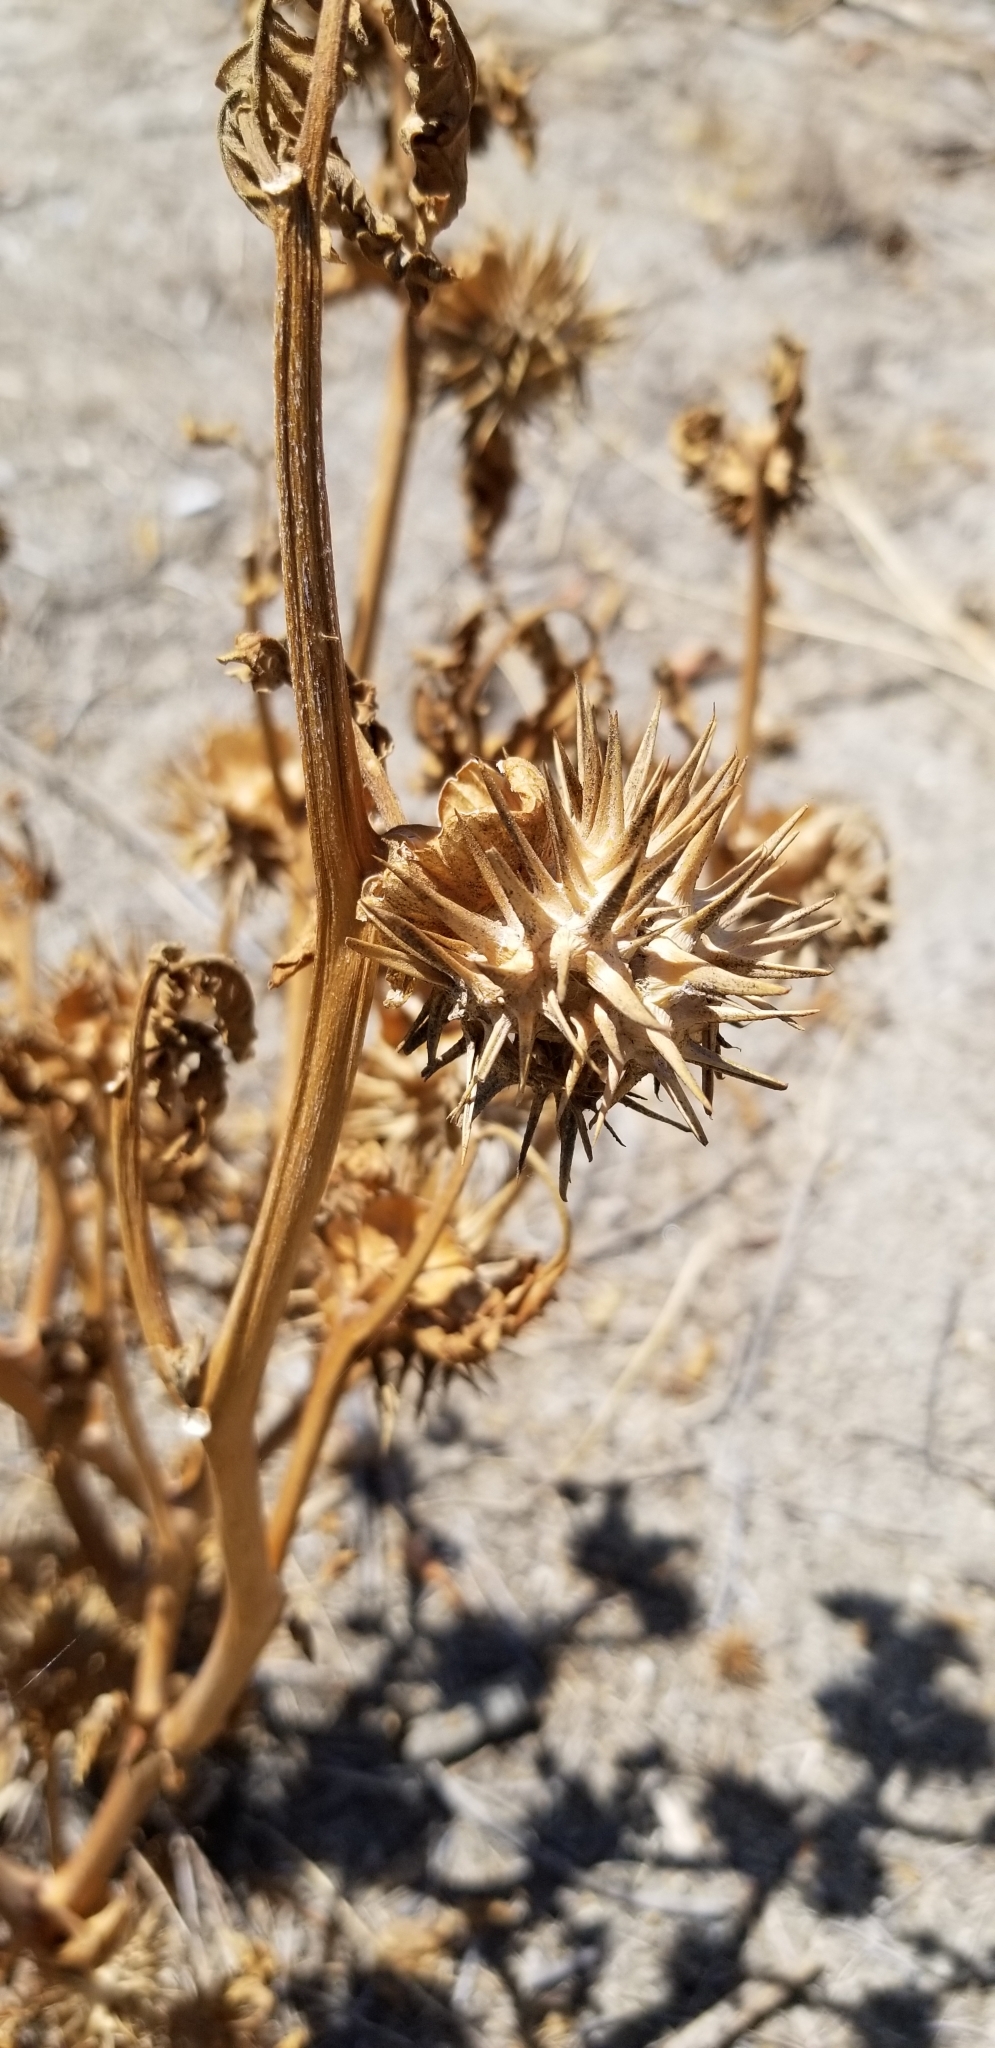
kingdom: Plantae
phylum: Tracheophyta
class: Magnoliopsida
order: Solanales
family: Solanaceae
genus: Datura
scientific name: Datura wrightii
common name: Sacred thorn-apple
